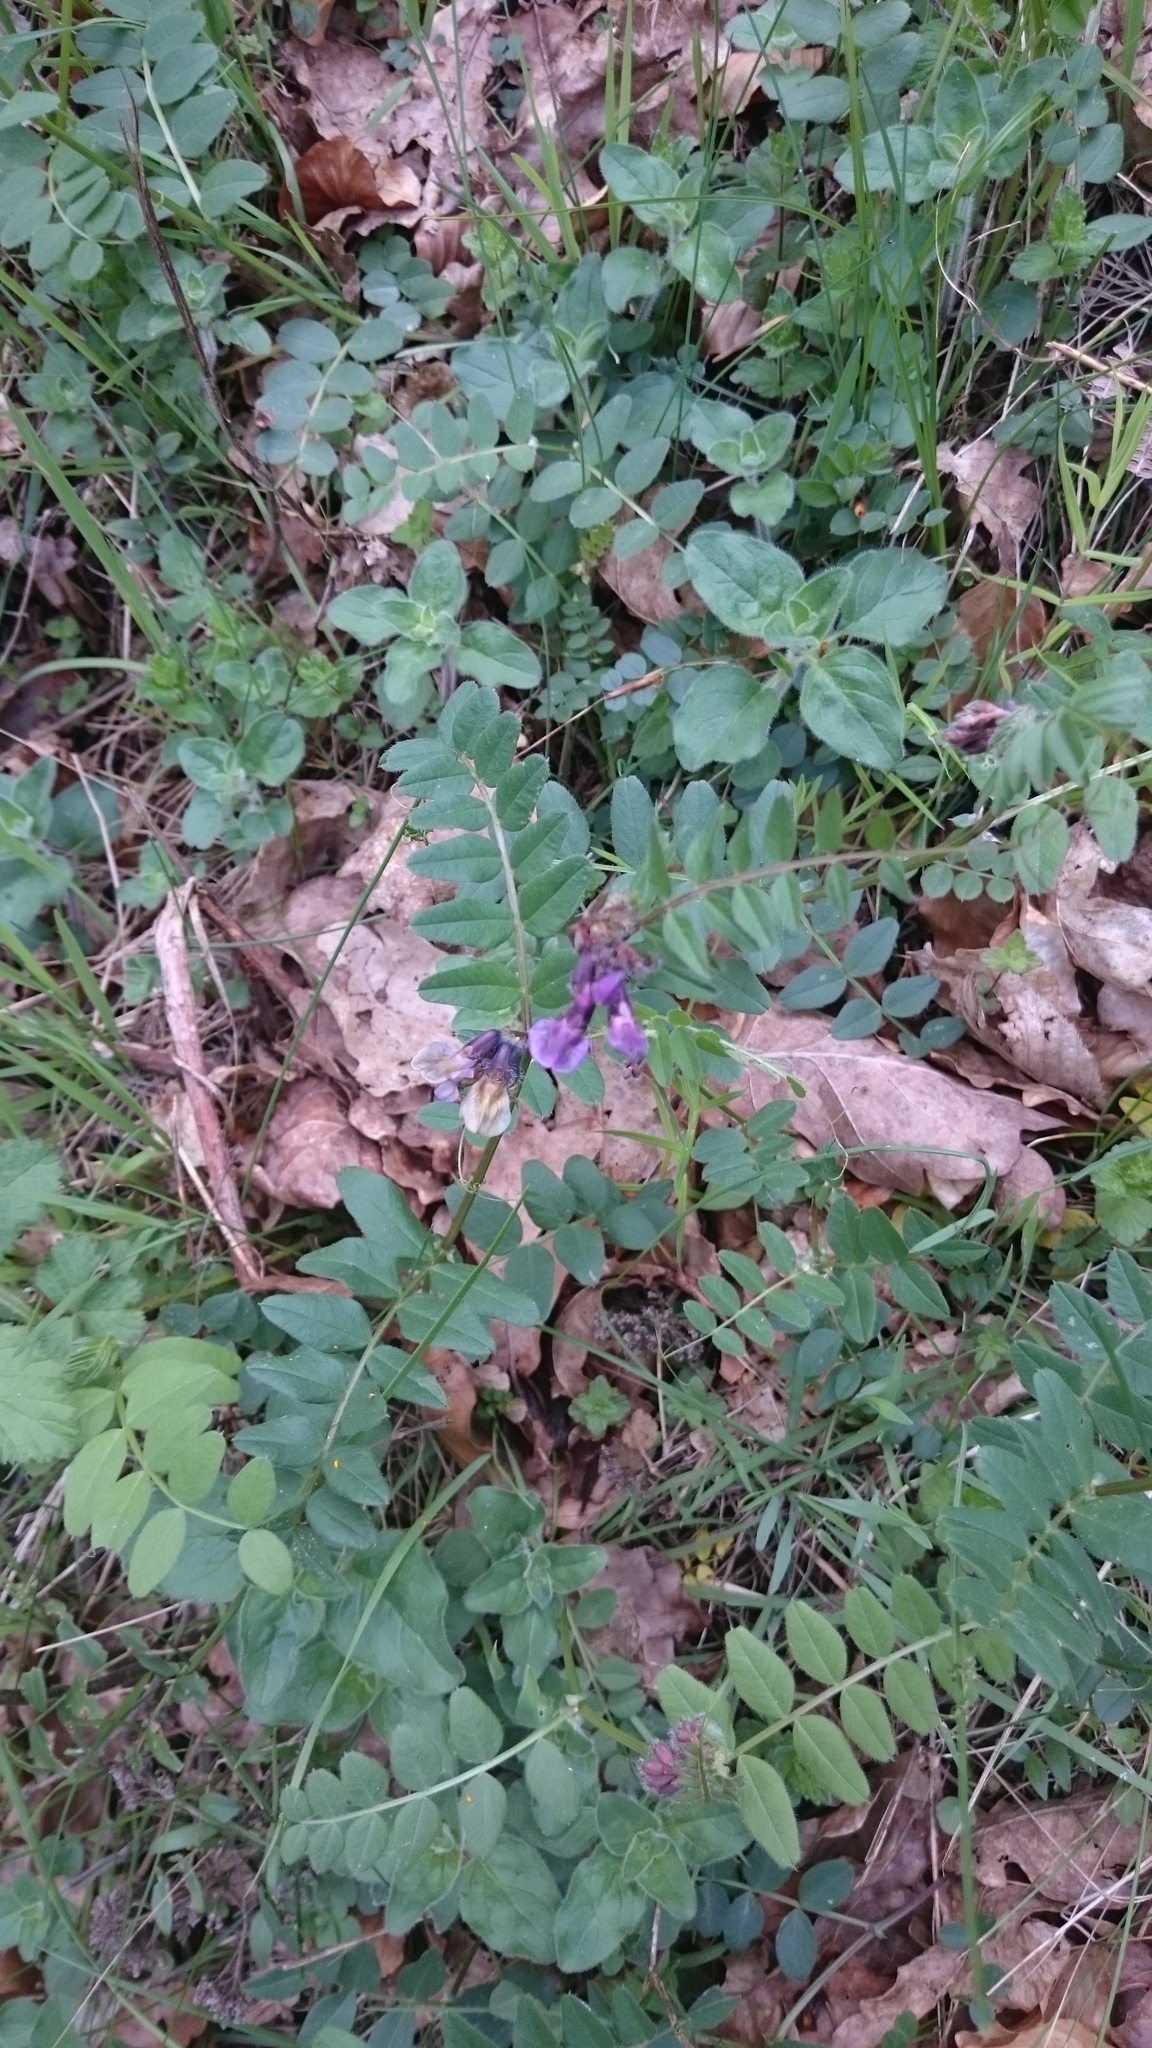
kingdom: Plantae
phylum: Tracheophyta
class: Magnoliopsida
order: Fabales
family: Fabaceae
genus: Vicia
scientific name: Vicia sepium
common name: Bush vetch
